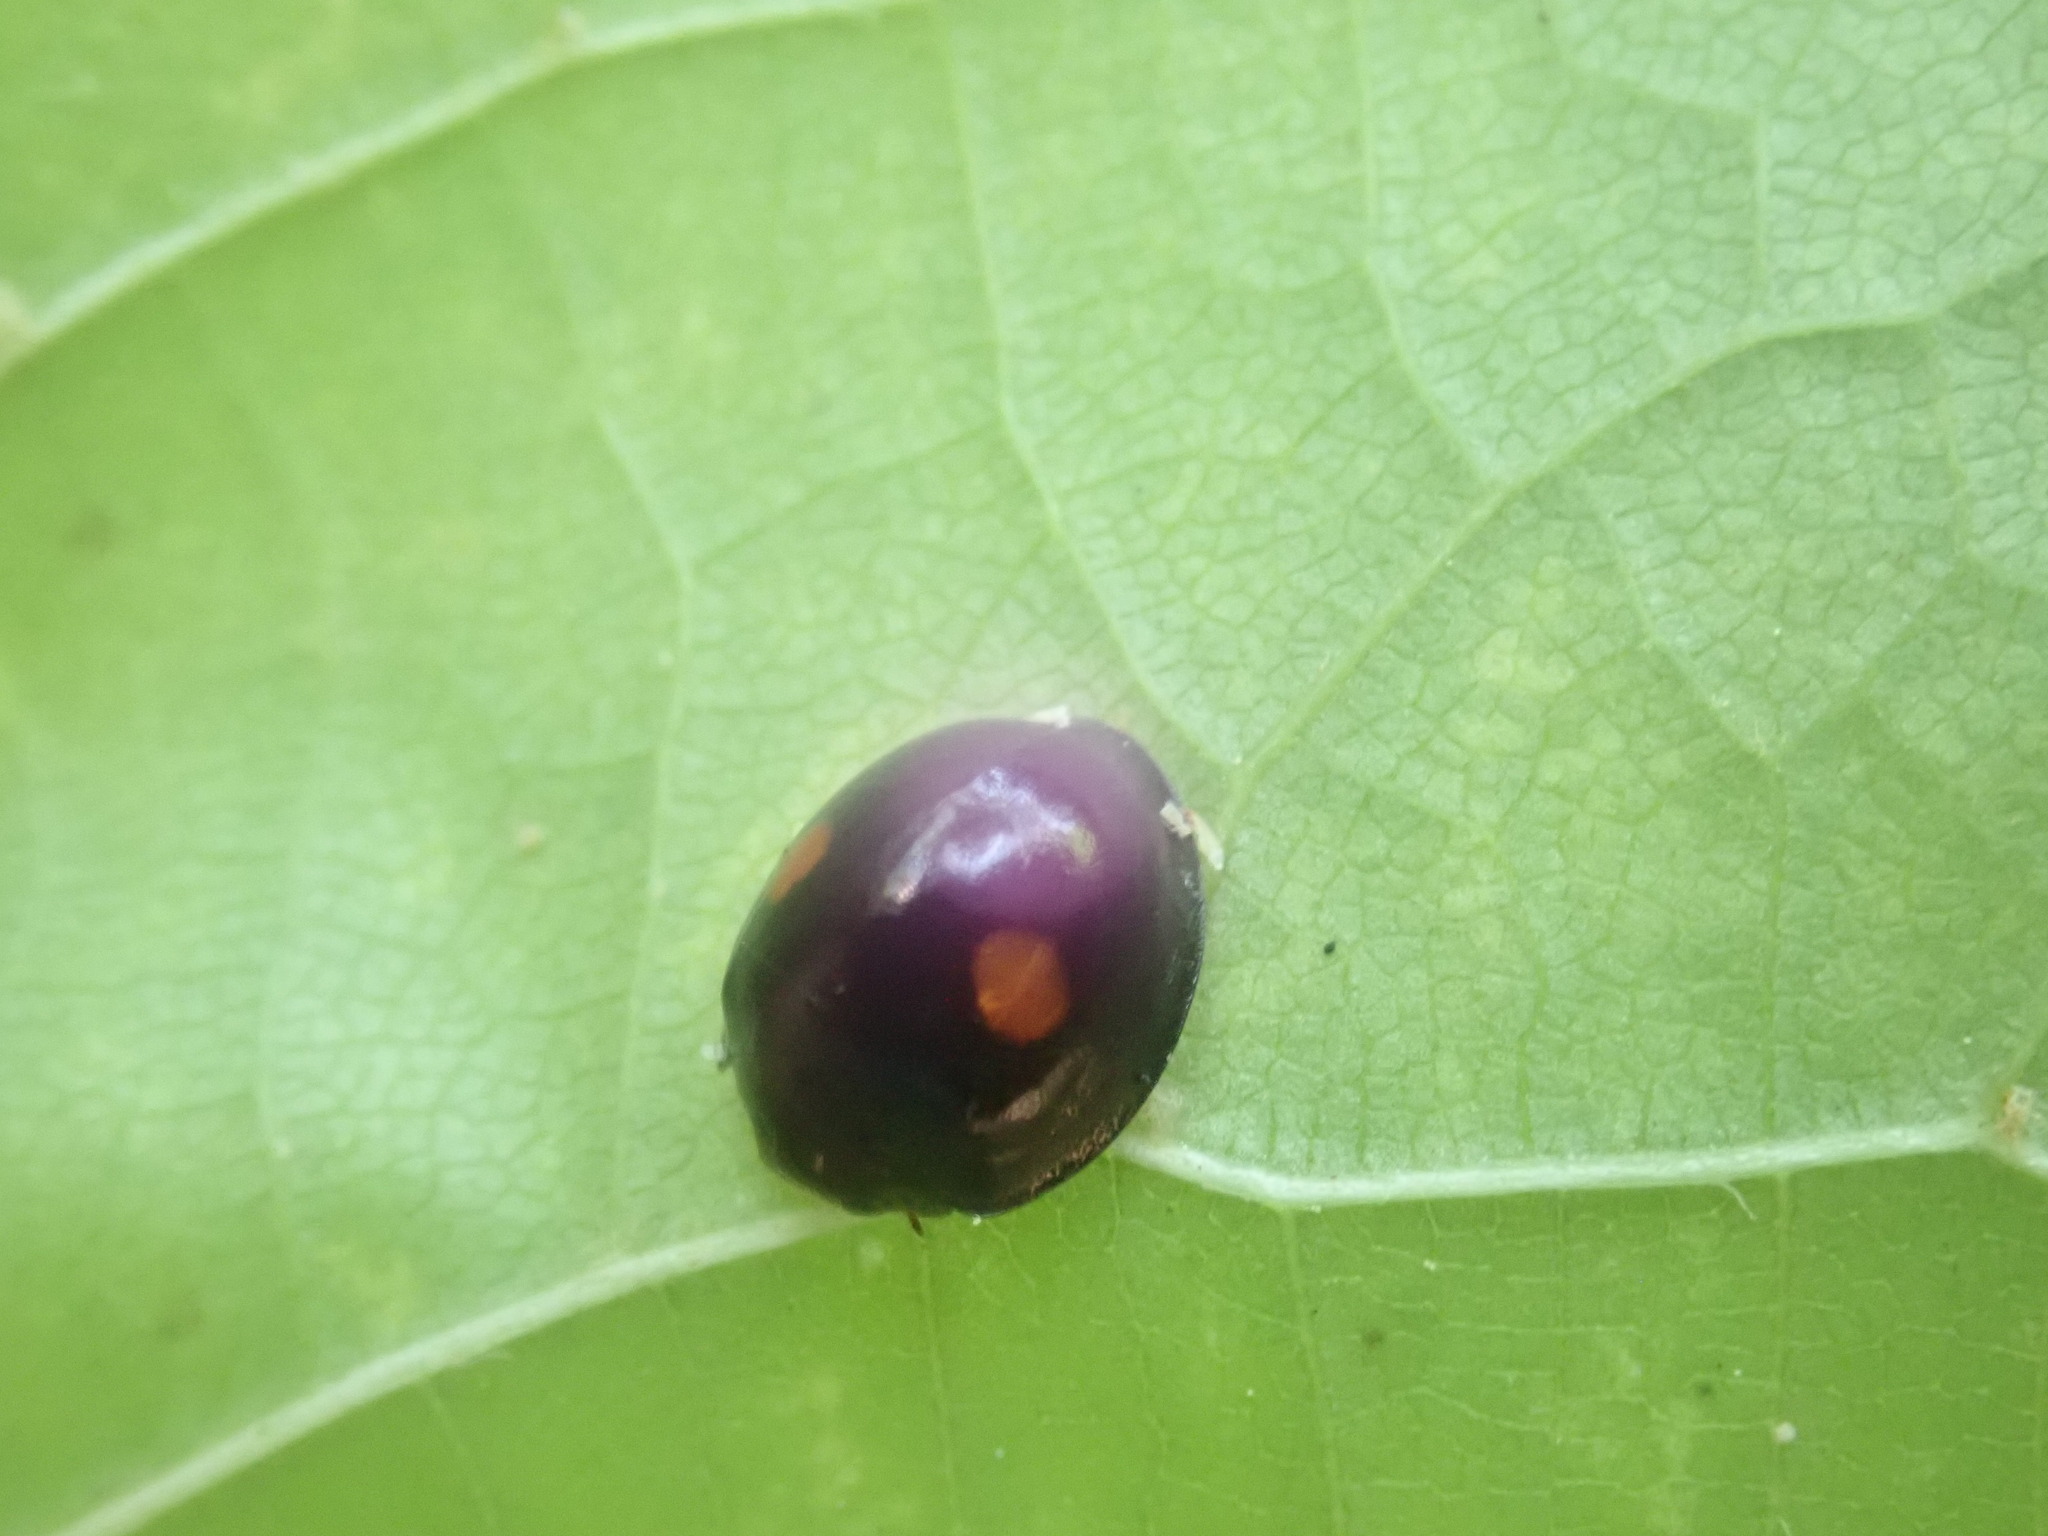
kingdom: Animalia
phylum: Arthropoda
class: Insecta
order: Coleoptera
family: Coccinellidae
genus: Chilocorus
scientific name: Chilocorus stigma
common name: Twicestabbed lady beetle
